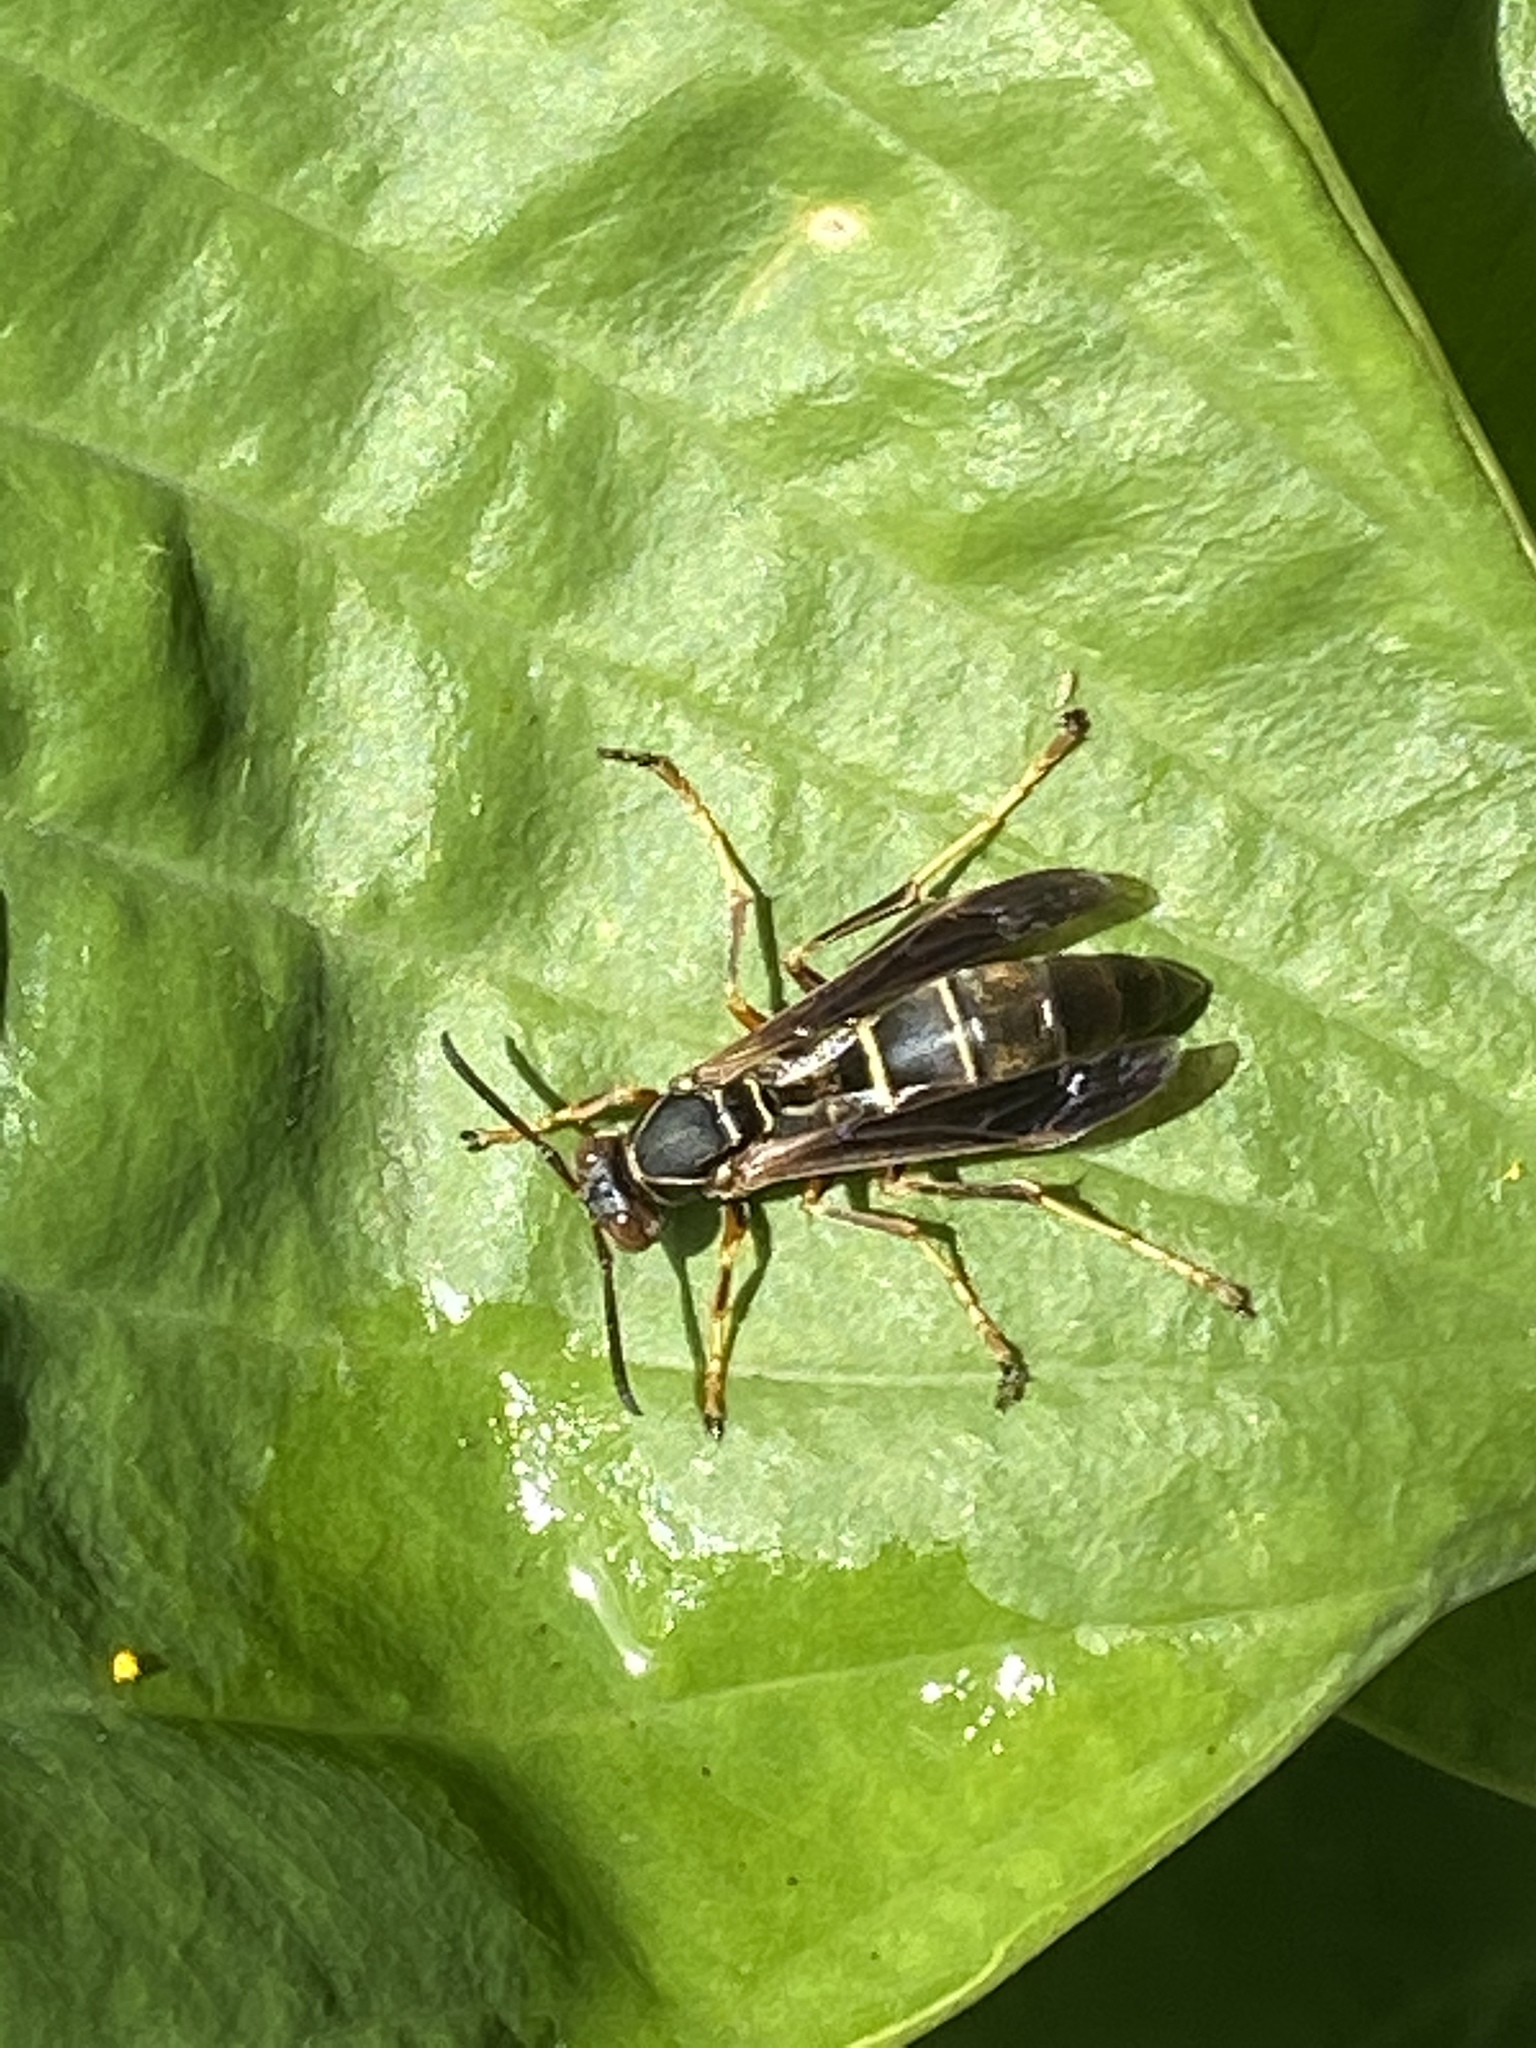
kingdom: Animalia
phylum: Arthropoda
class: Insecta
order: Hymenoptera
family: Eumenidae
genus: Polistes
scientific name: Polistes fuscatus
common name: Dark paper wasp
